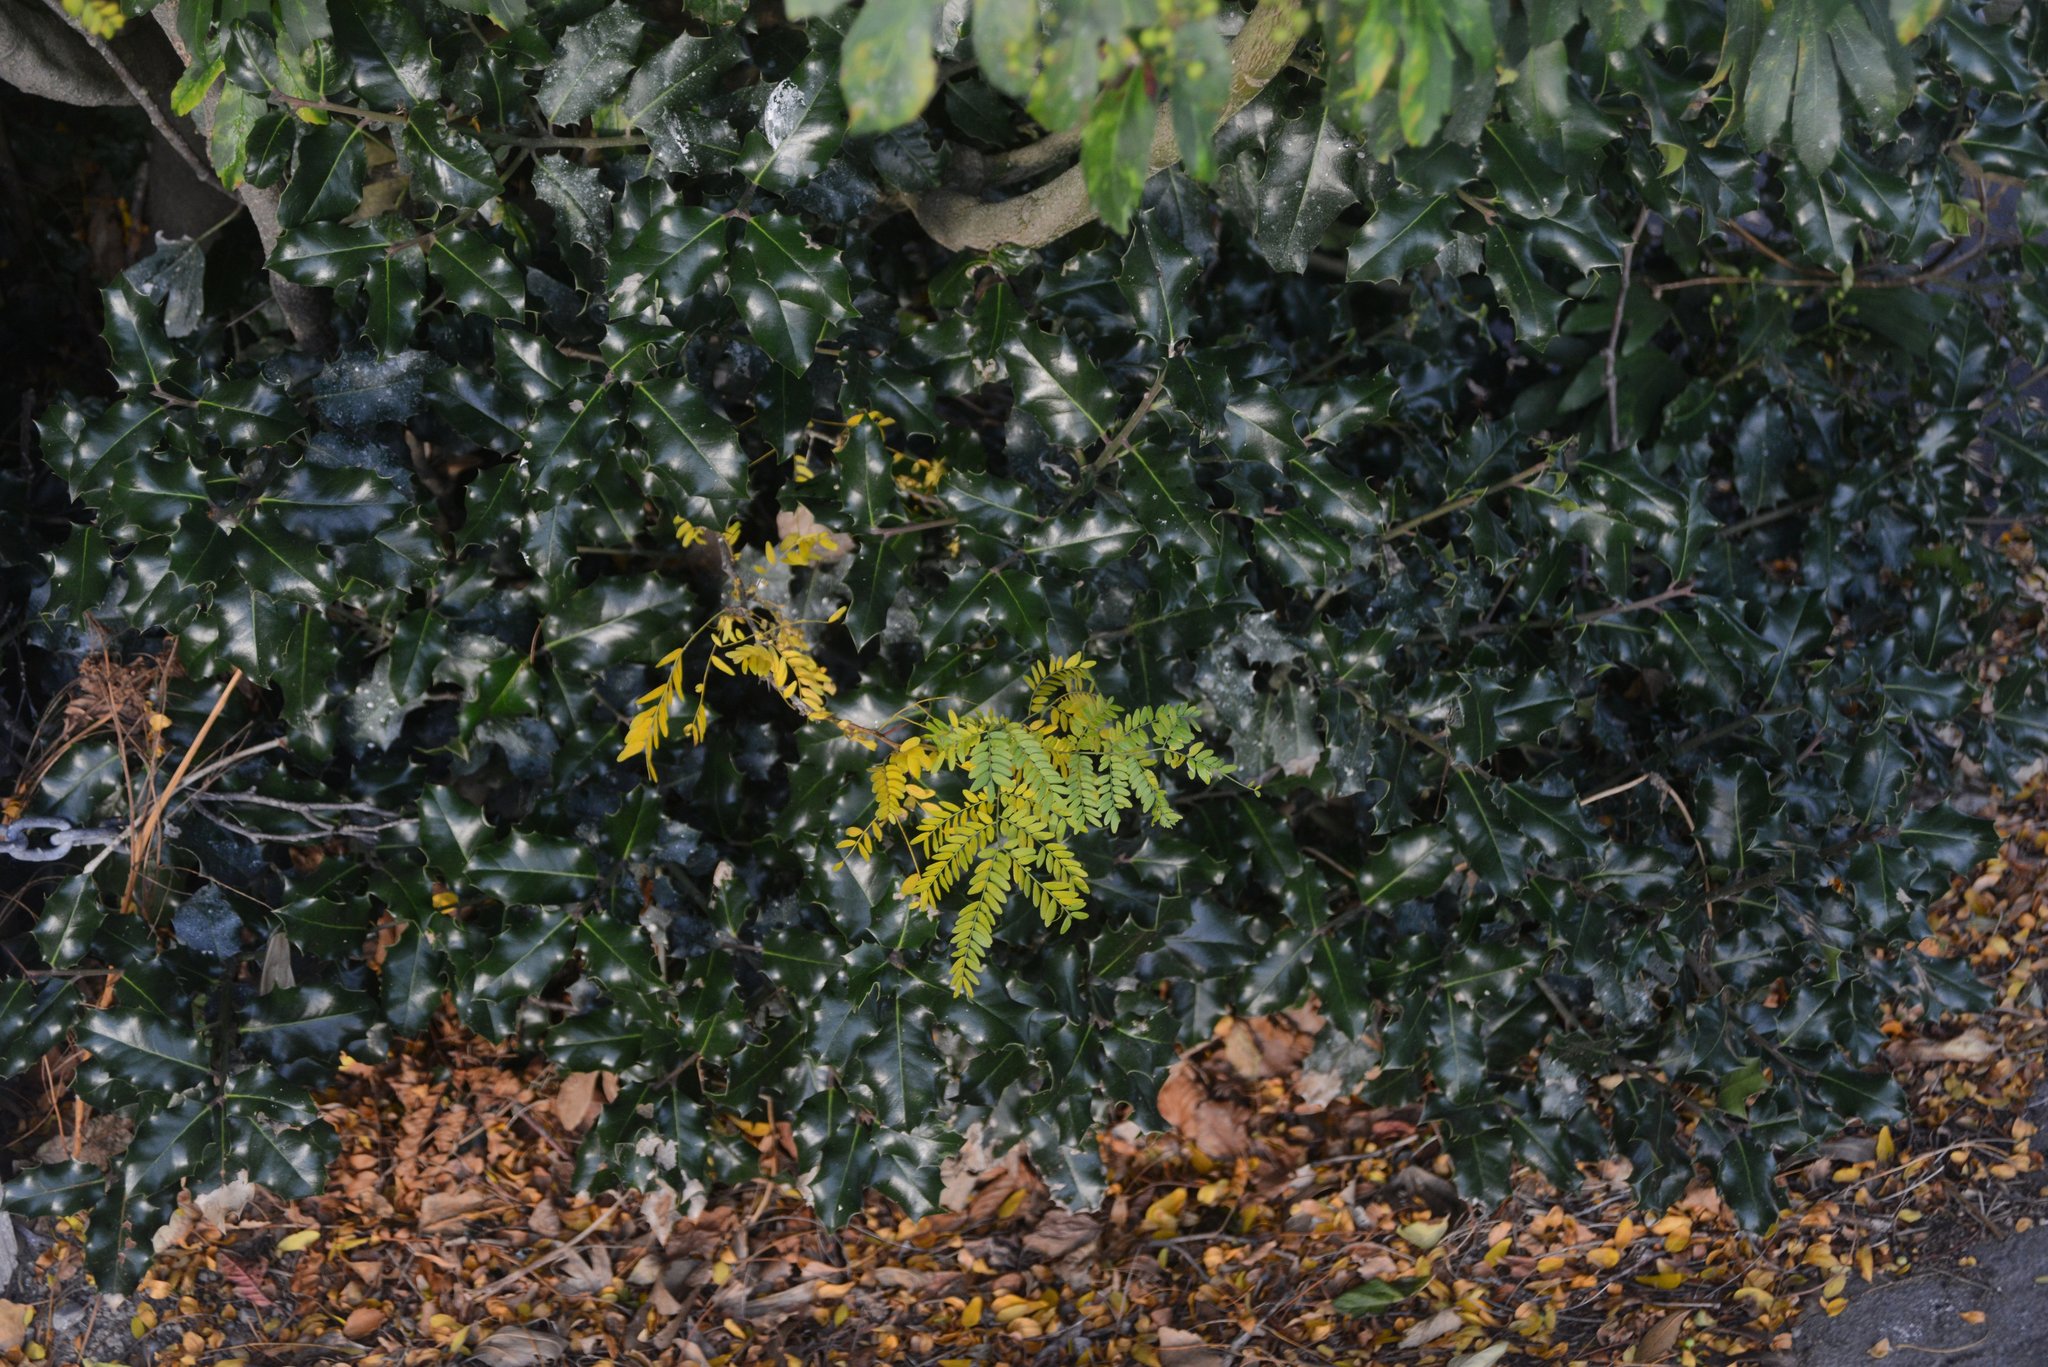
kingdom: Plantae
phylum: Tracheophyta
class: Magnoliopsida
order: Aquifoliales
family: Aquifoliaceae
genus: Ilex
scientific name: Ilex aquifolium
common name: English holly
